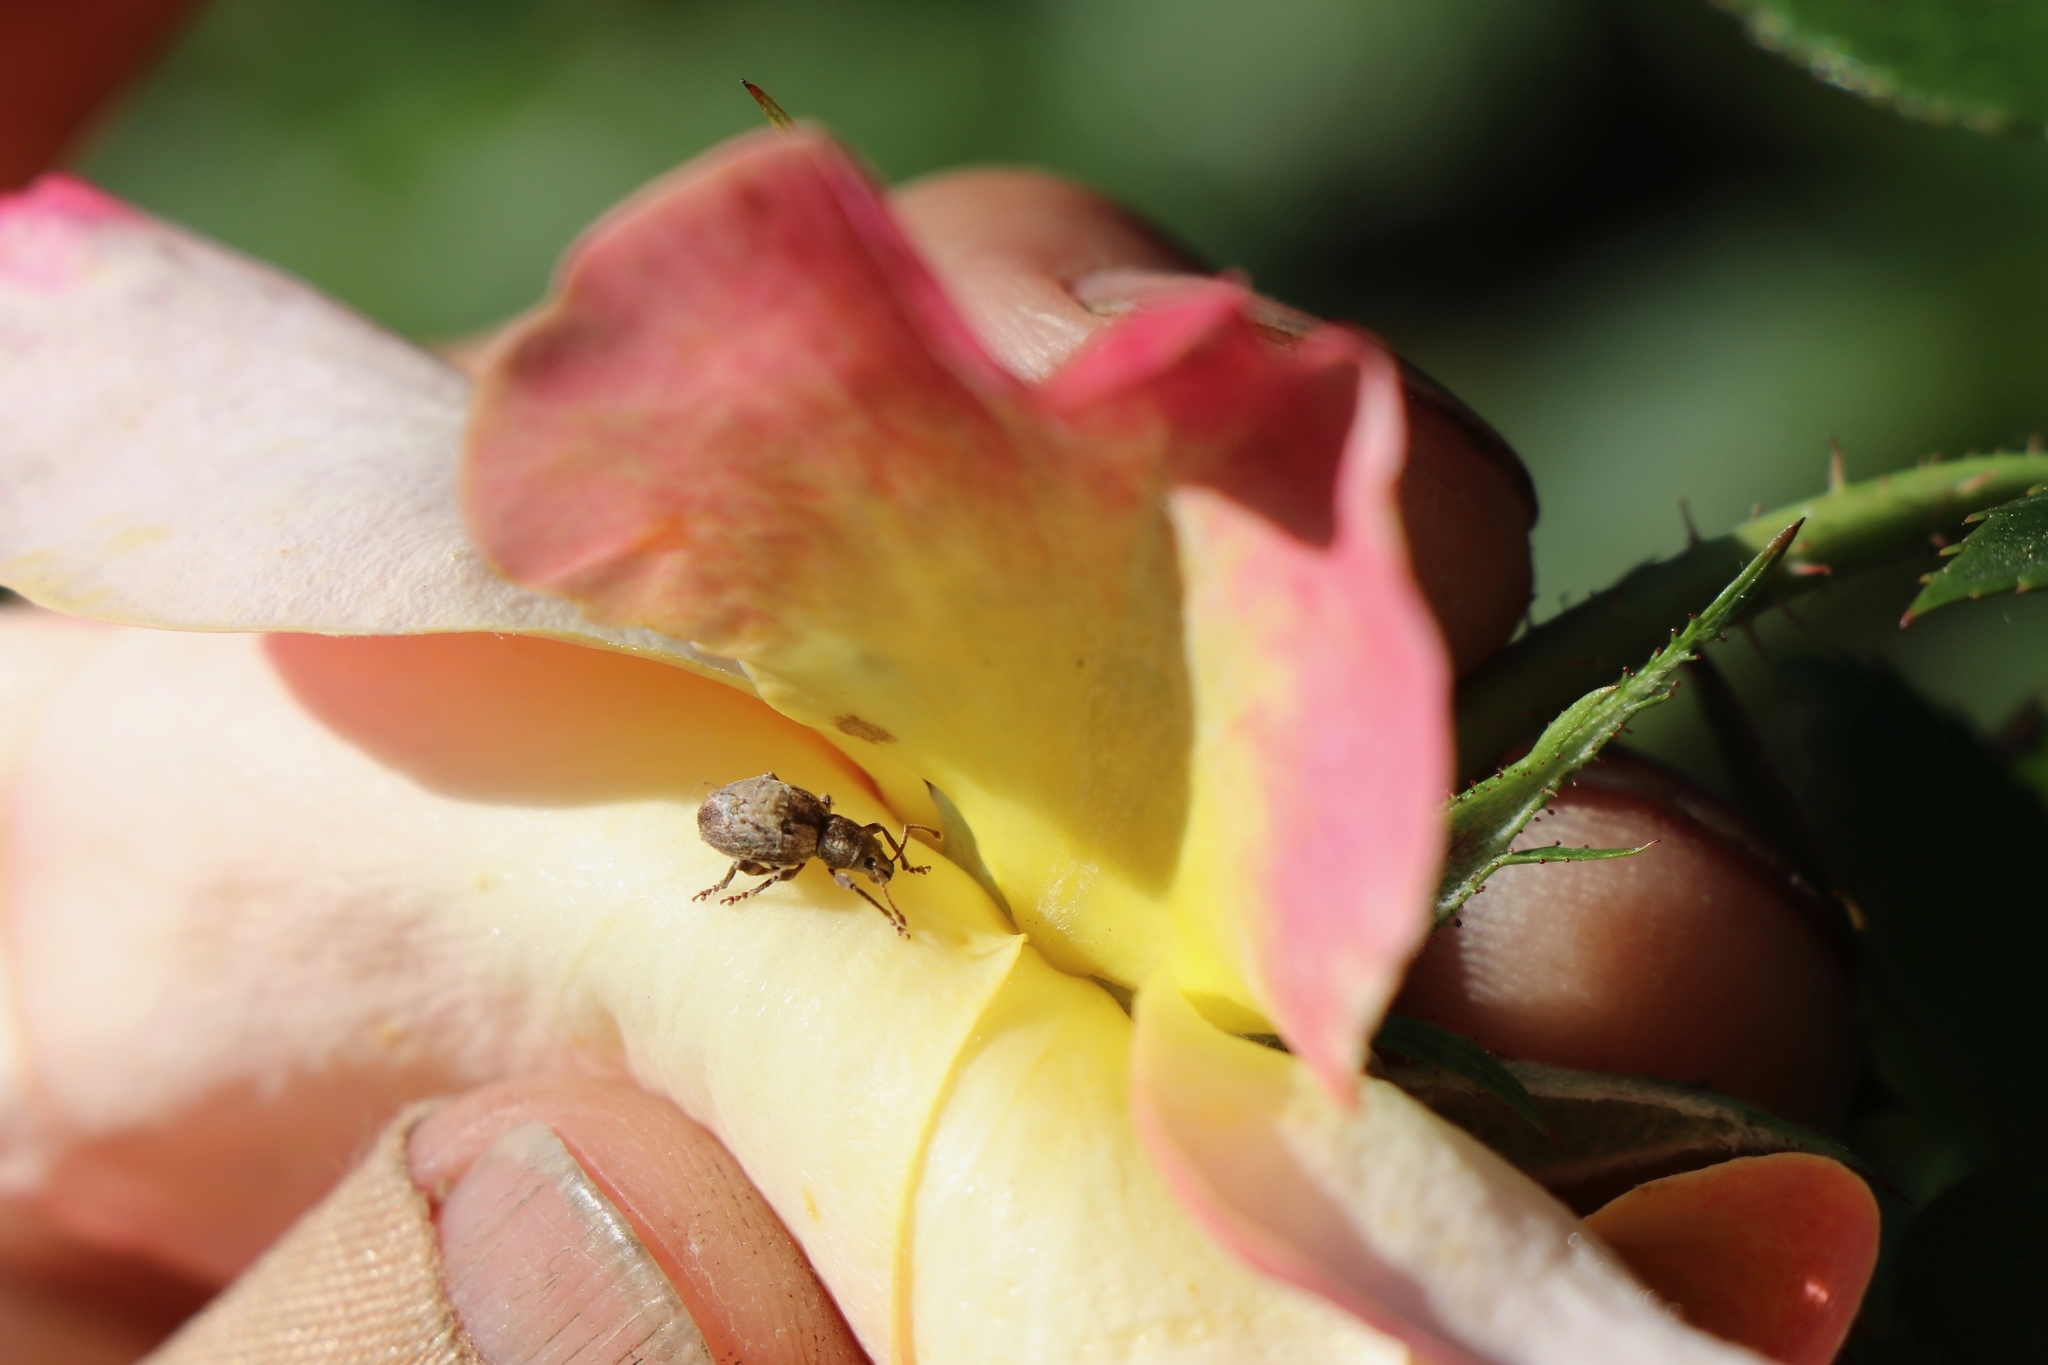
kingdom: Animalia
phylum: Arthropoda
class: Insecta
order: Coleoptera
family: Curculionidae
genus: Sciopithes
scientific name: Sciopithes obscurus
